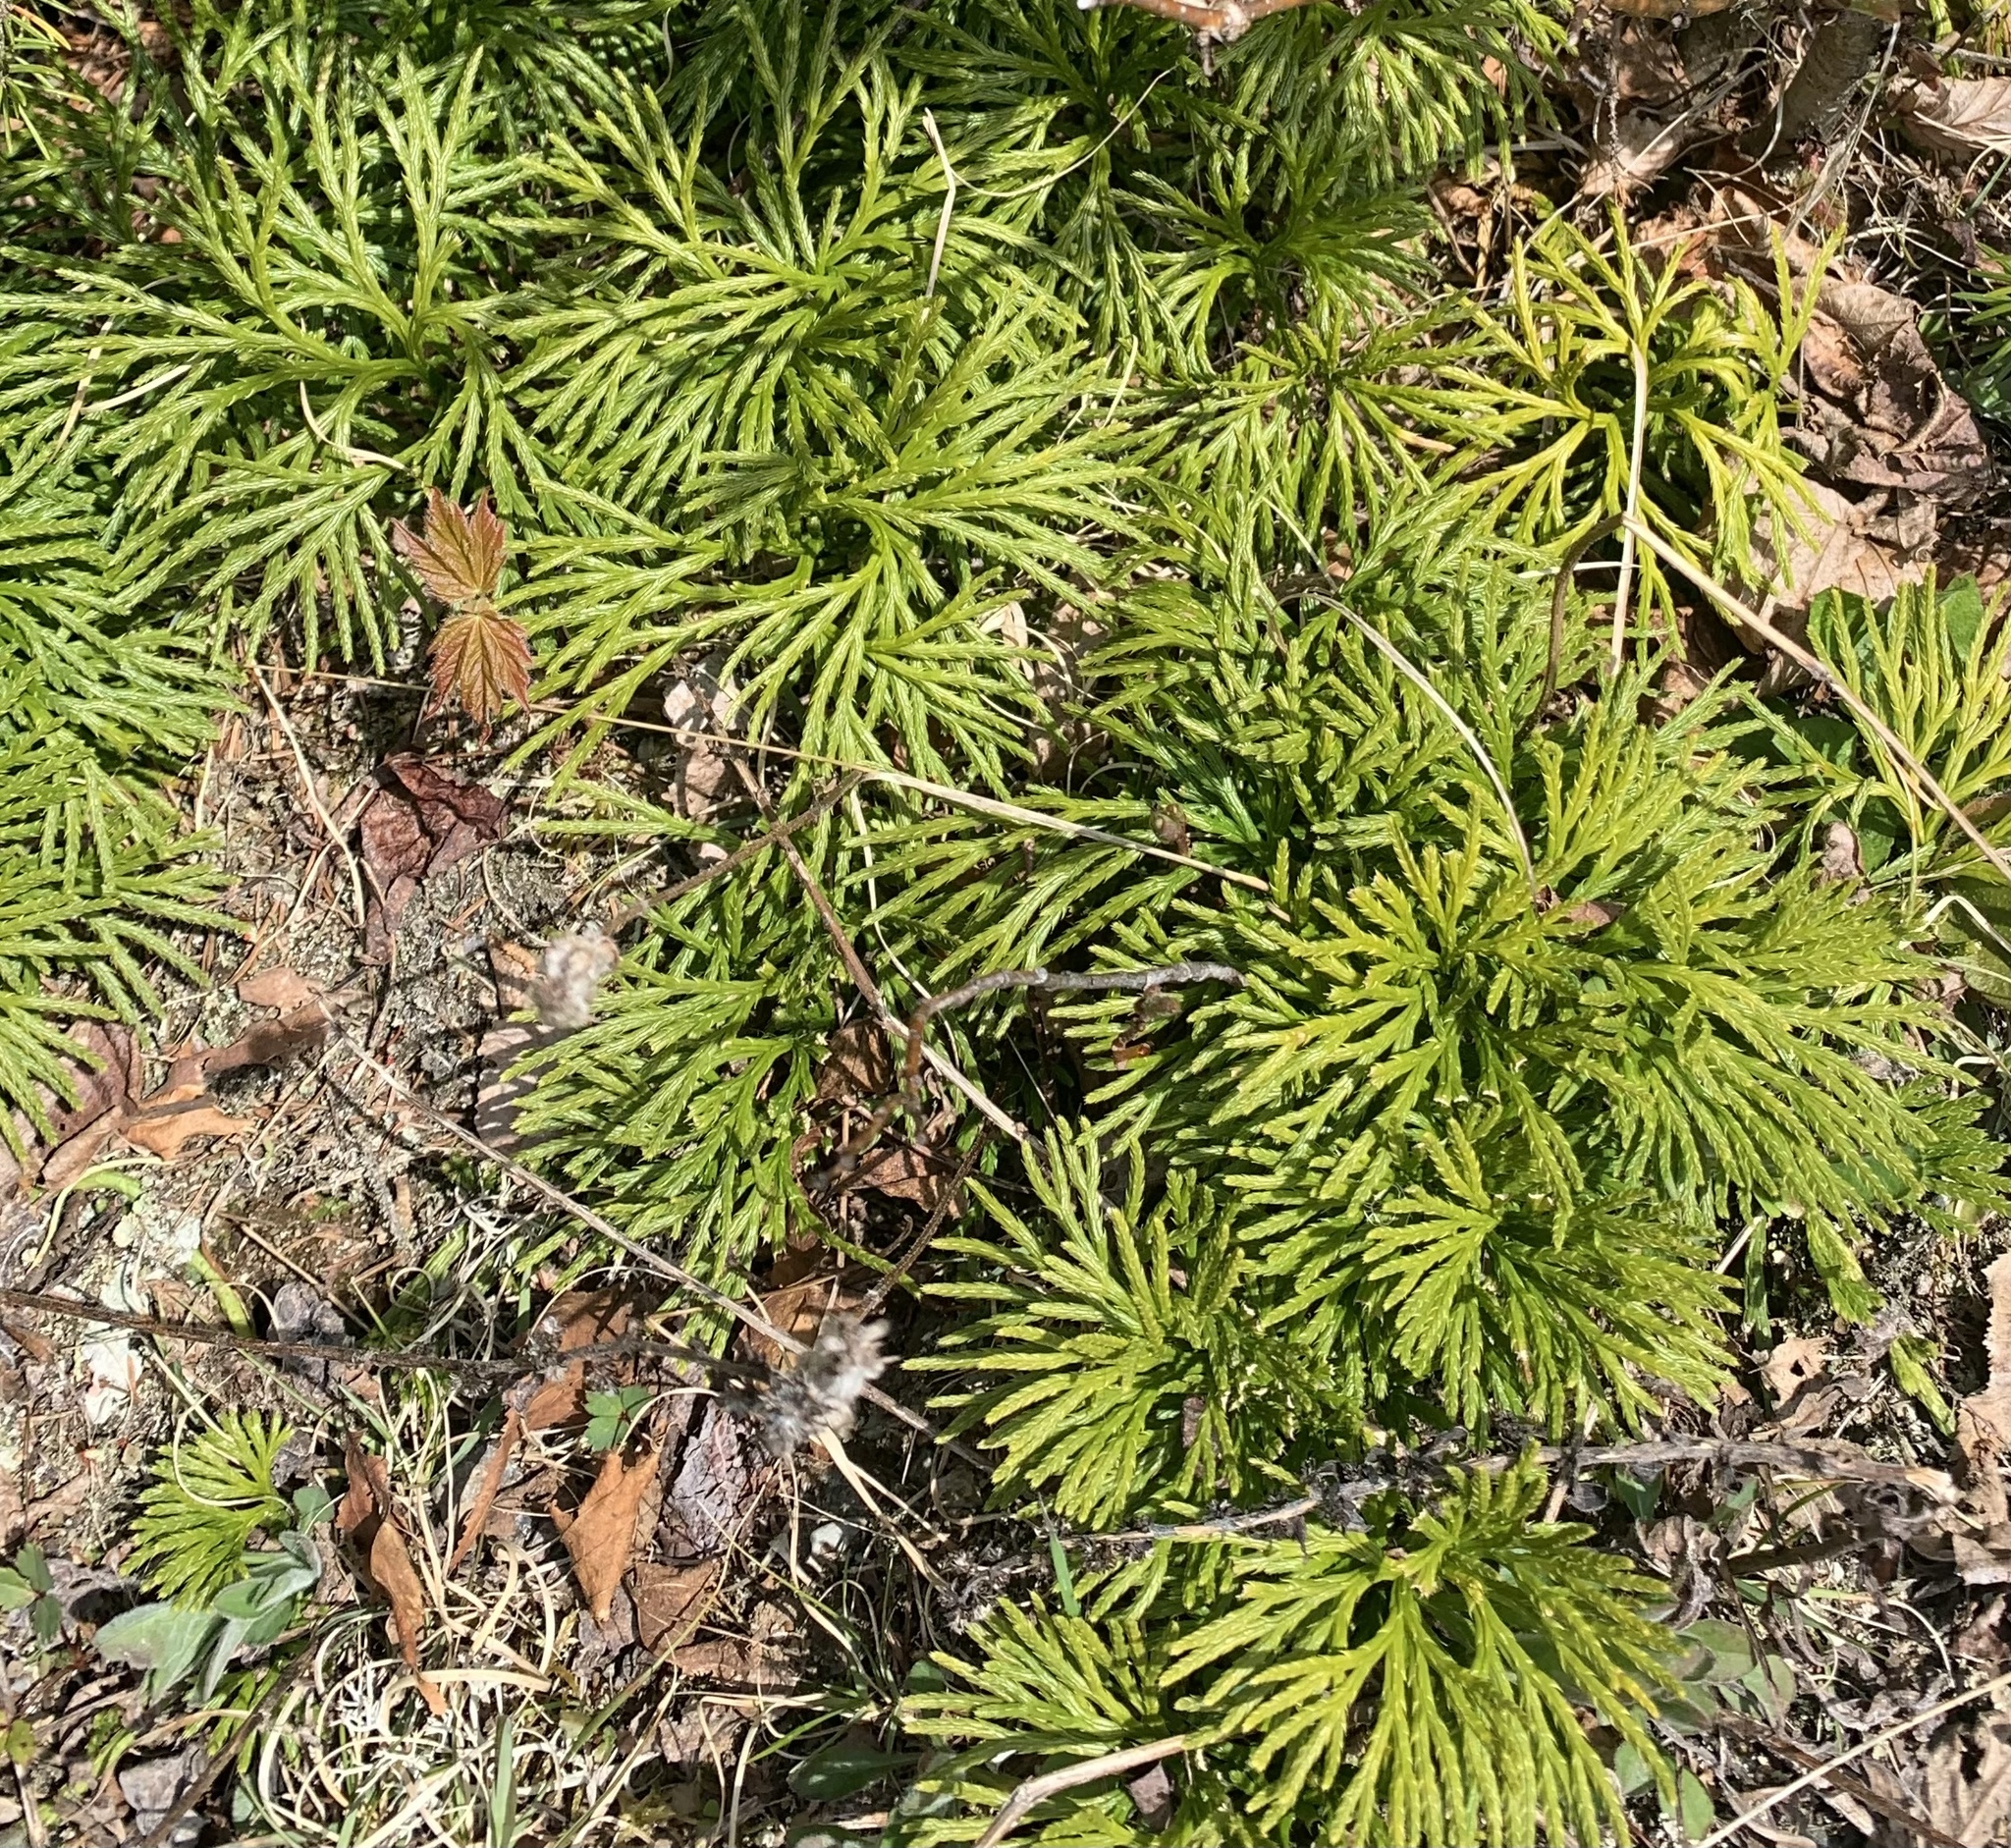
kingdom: Plantae
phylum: Tracheophyta
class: Lycopodiopsida
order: Lycopodiales
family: Lycopodiaceae
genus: Diphasiastrum
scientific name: Diphasiastrum digitatum
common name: Southern running-pine
